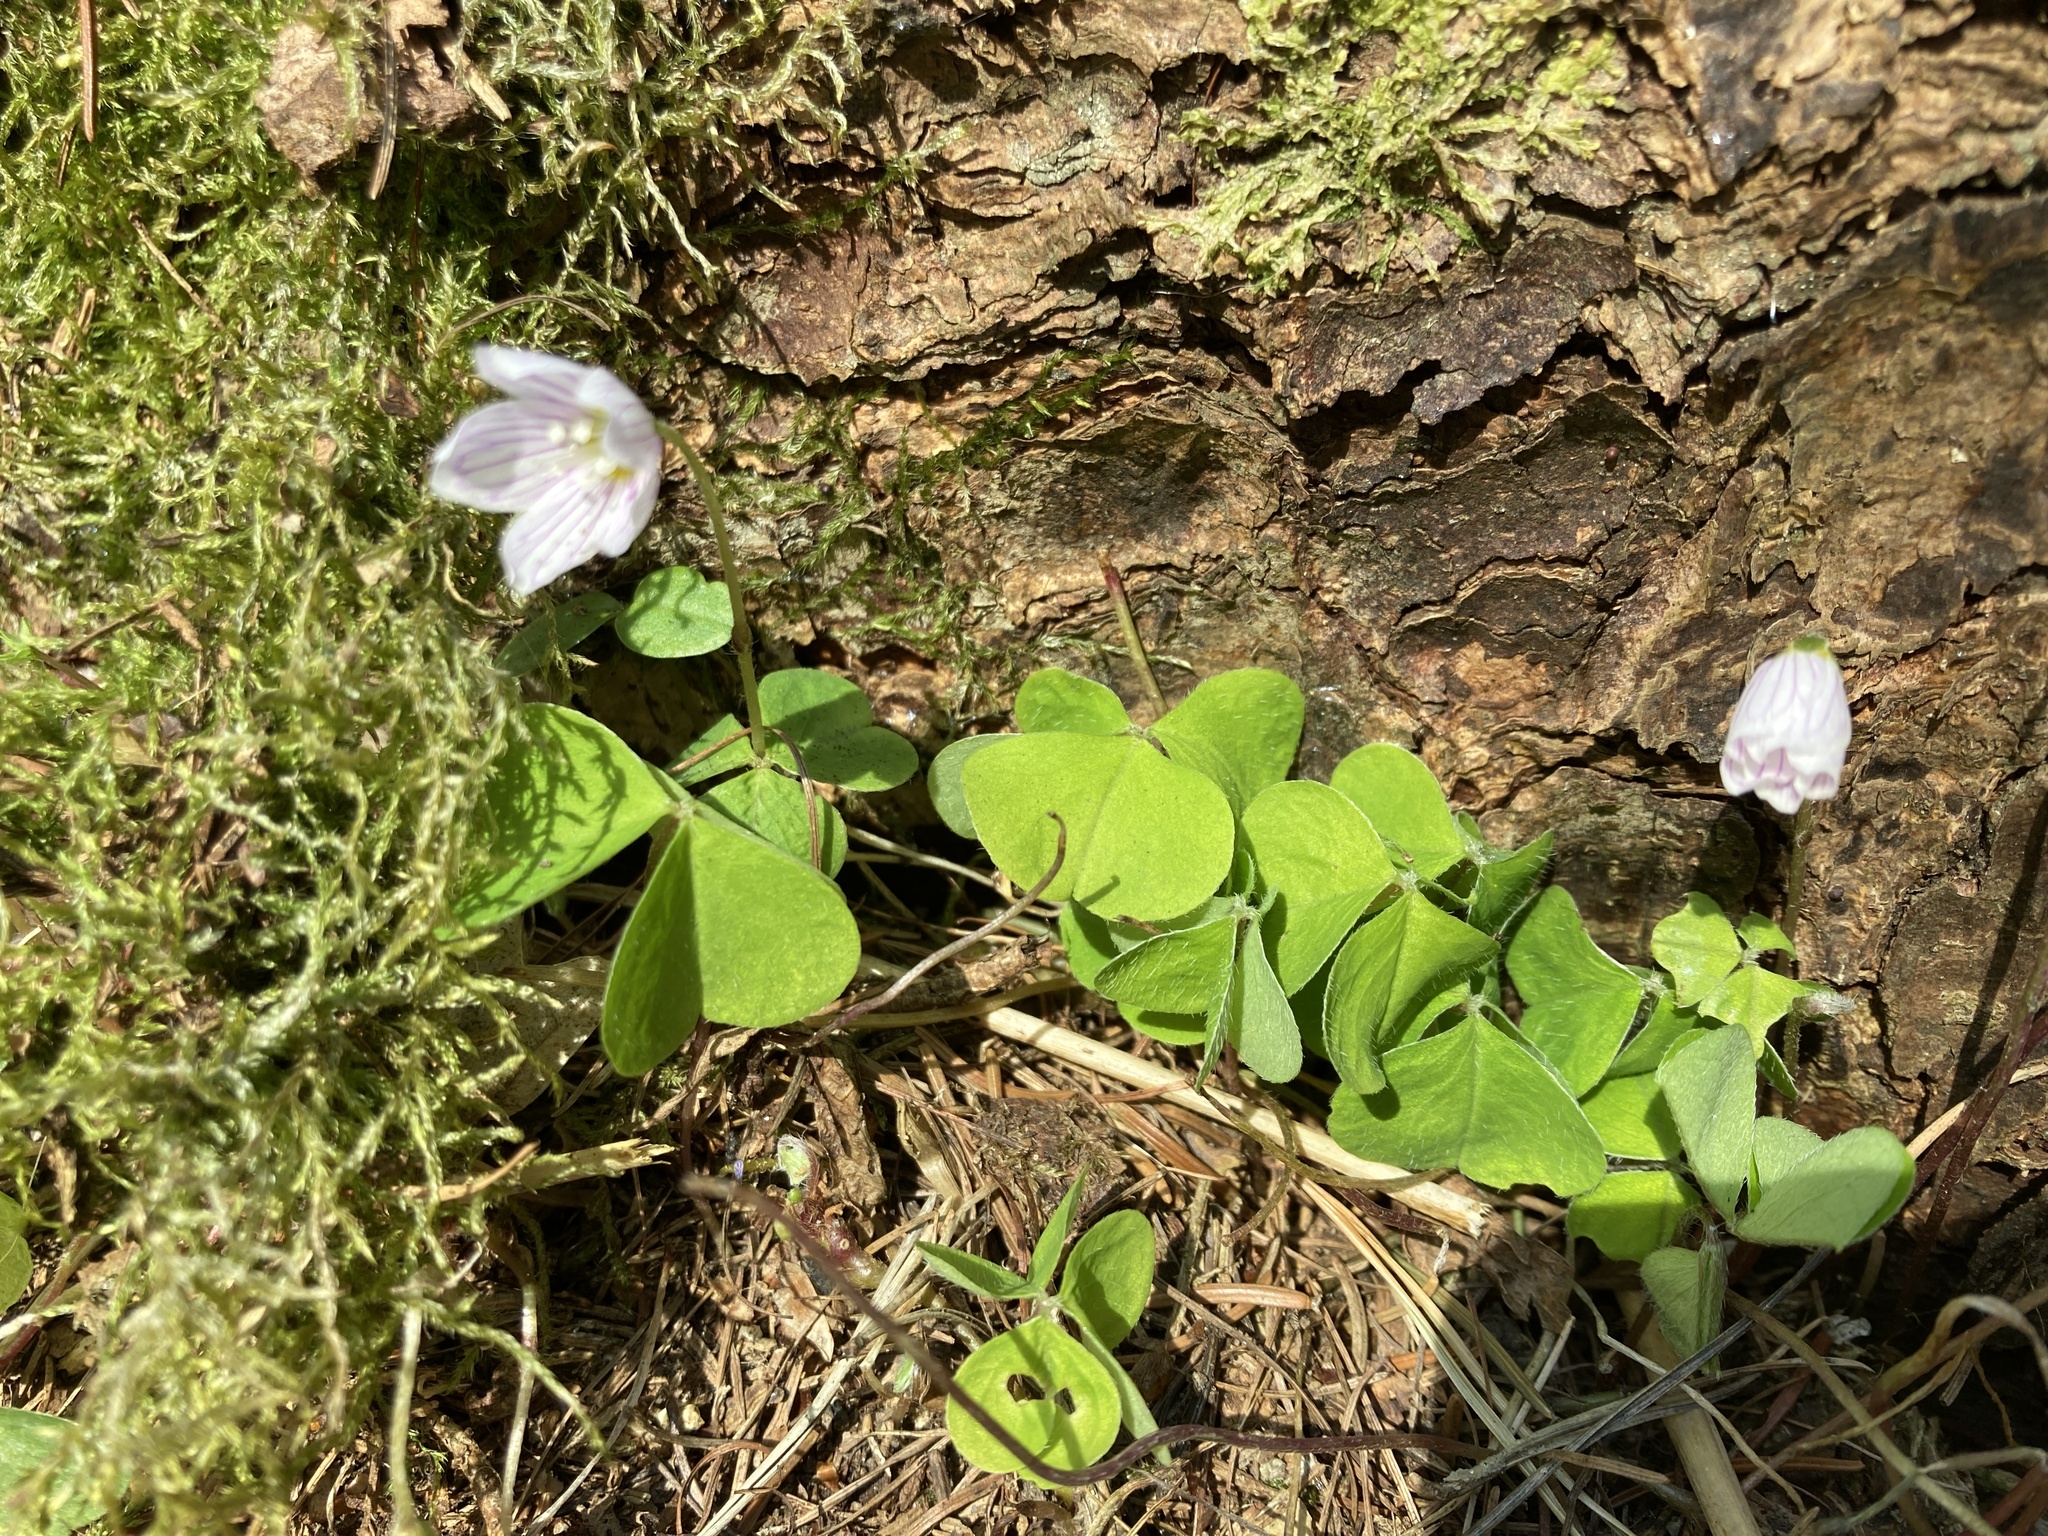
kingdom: Plantae
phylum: Tracheophyta
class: Magnoliopsida
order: Oxalidales
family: Oxalidaceae
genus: Oxalis
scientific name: Oxalis acetosella
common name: Wood-sorrel
